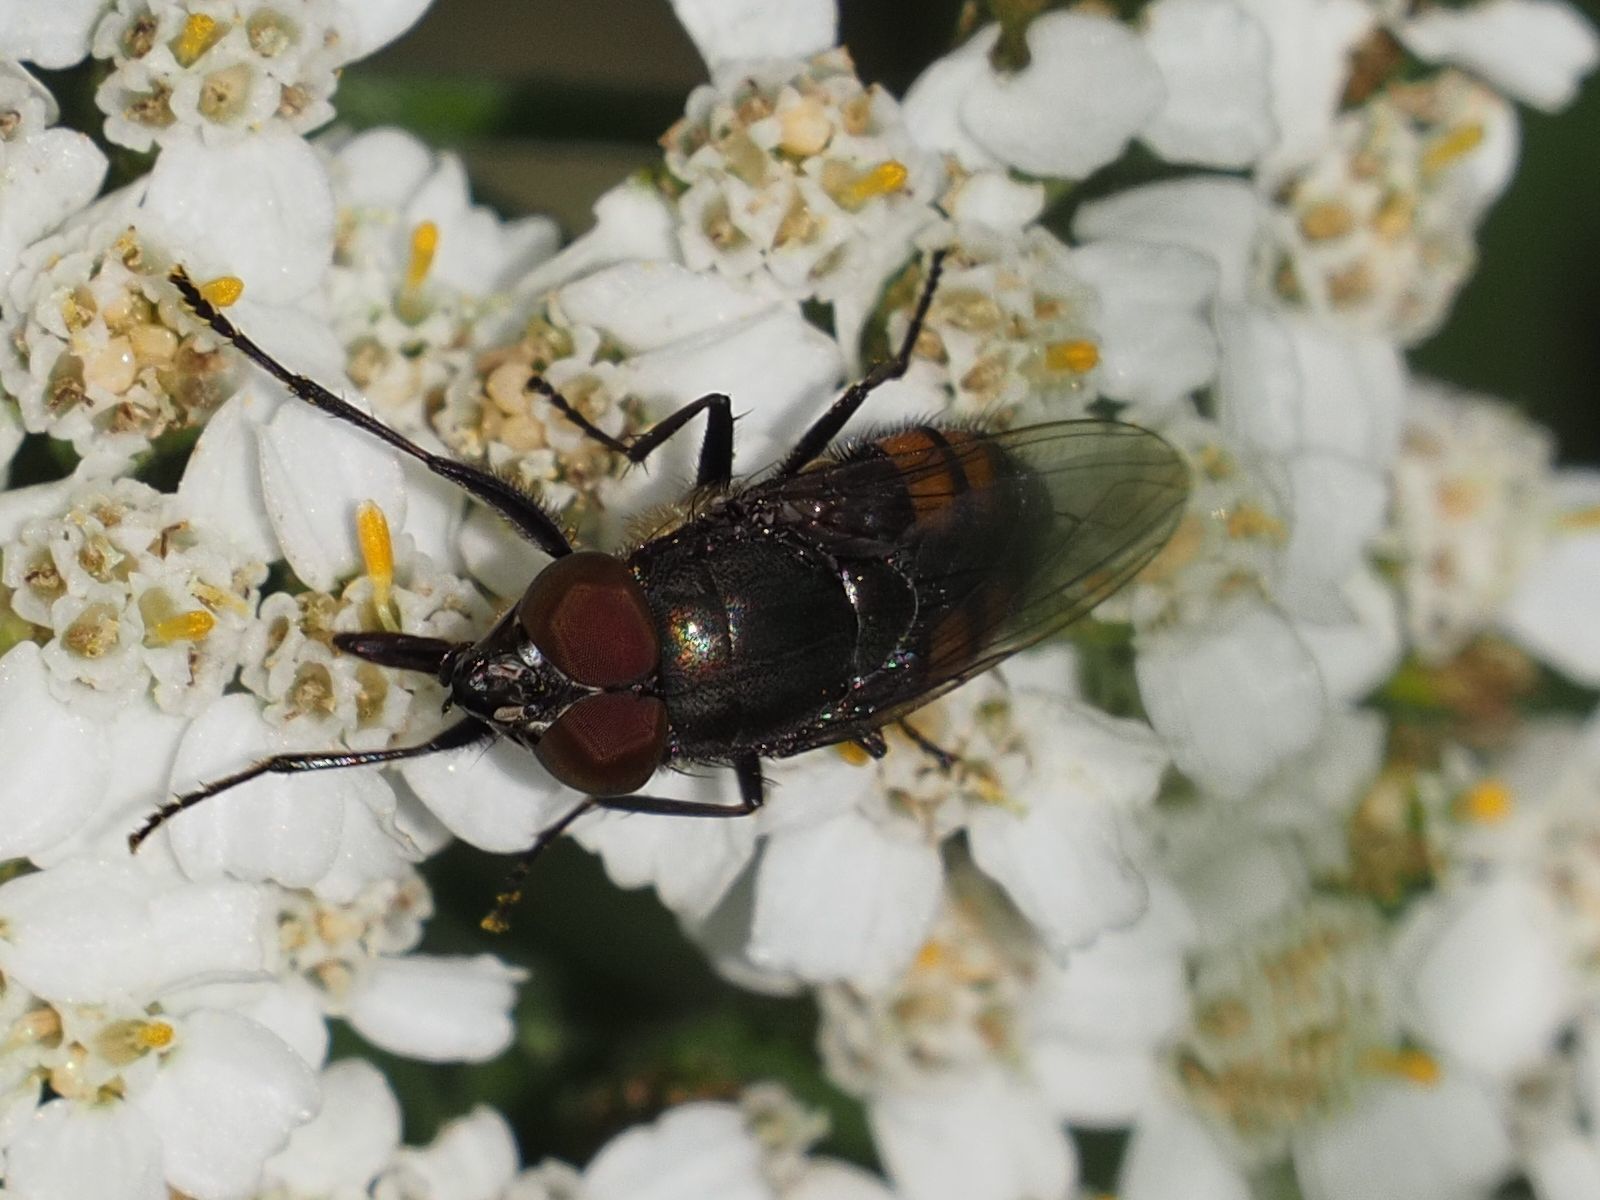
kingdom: Animalia
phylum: Arthropoda
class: Insecta
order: Diptera
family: Calliphoridae
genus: Stomorhina
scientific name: Stomorhina lunata
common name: Locust blowfly
